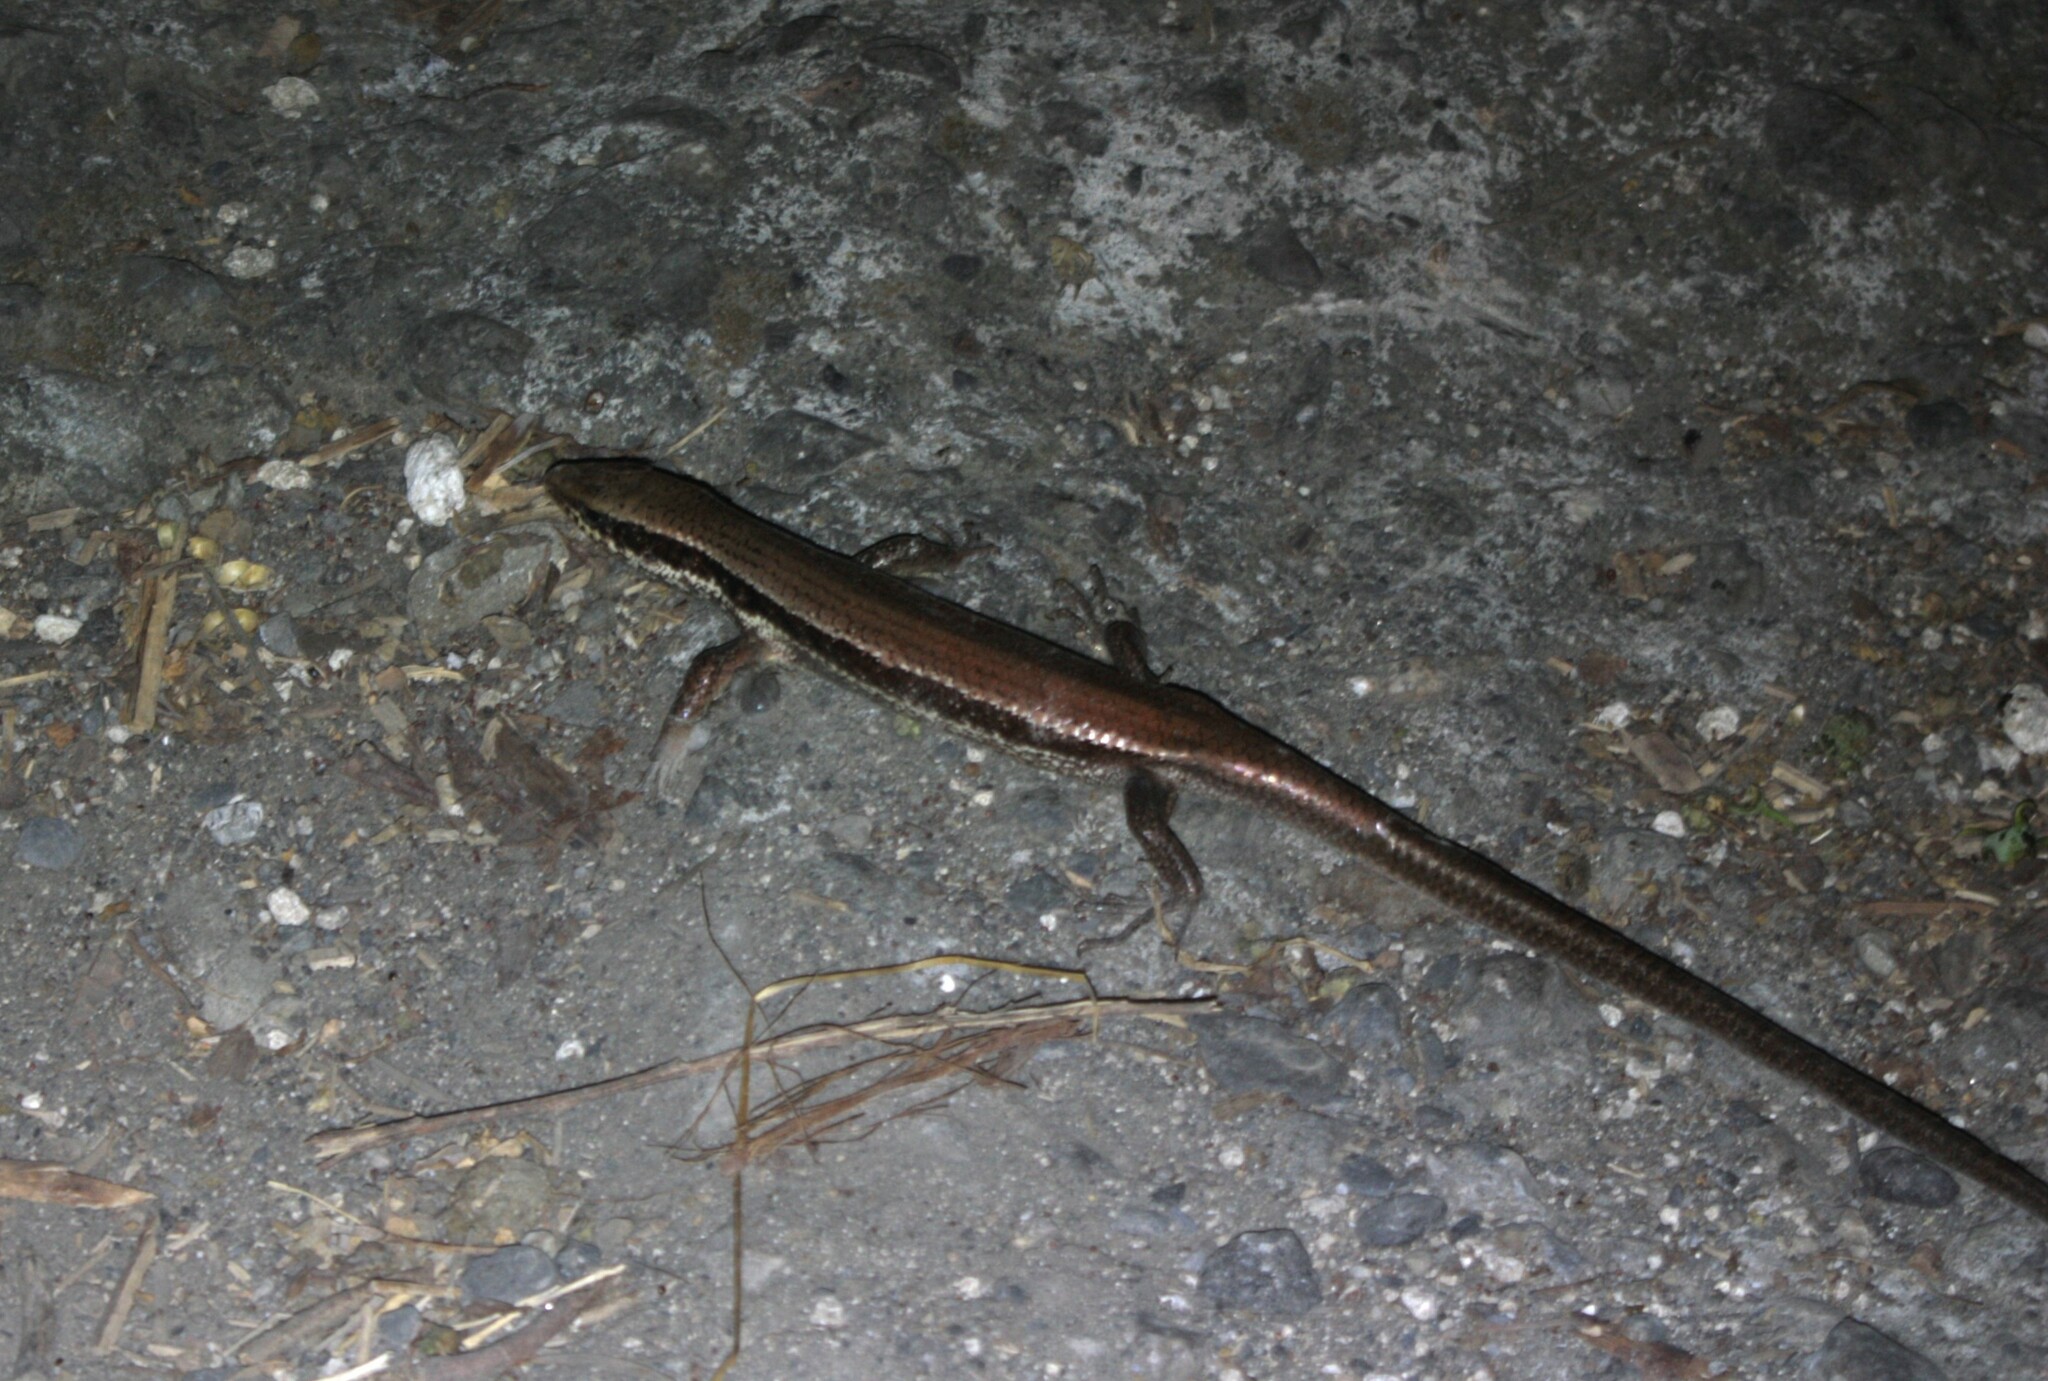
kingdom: Animalia
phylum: Chordata
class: Squamata
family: Scincidae
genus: Eutropis
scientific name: Eutropis longicaudata
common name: Long-tailed sun skink
